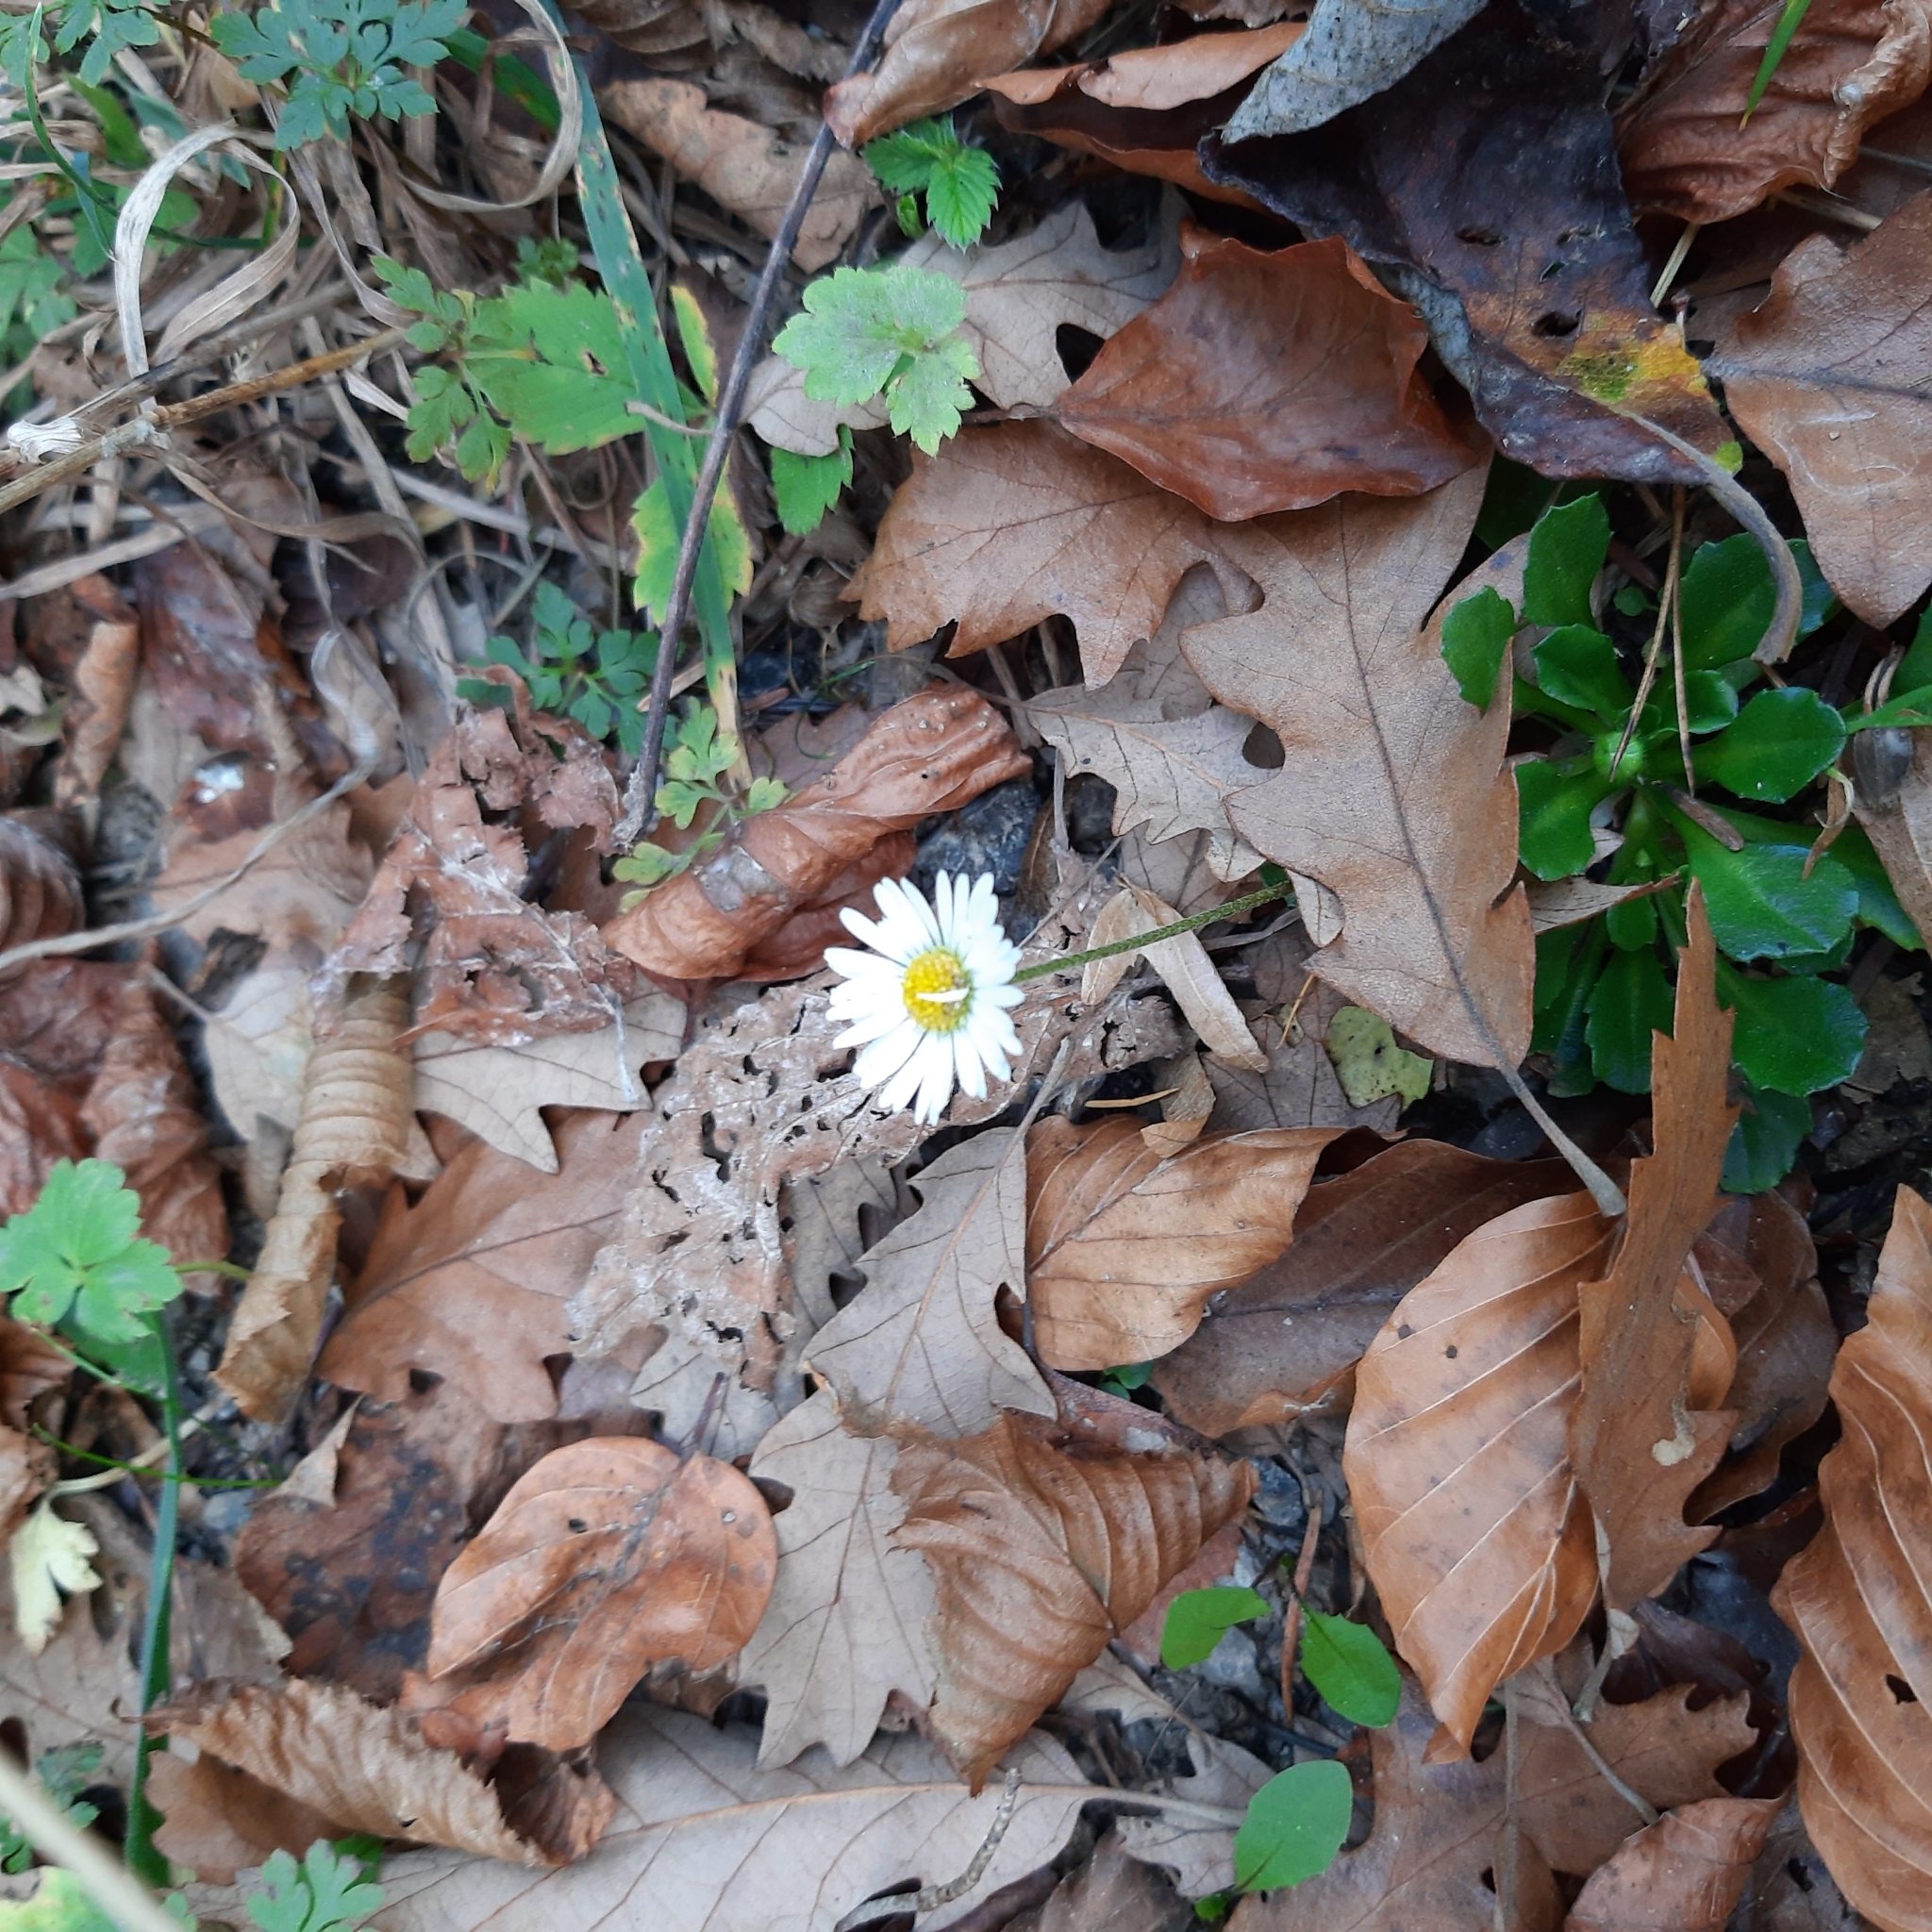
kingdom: Plantae
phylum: Tracheophyta
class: Magnoliopsida
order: Asterales
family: Asteraceae
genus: Bellis
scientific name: Bellis perennis
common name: Lawndaisy
